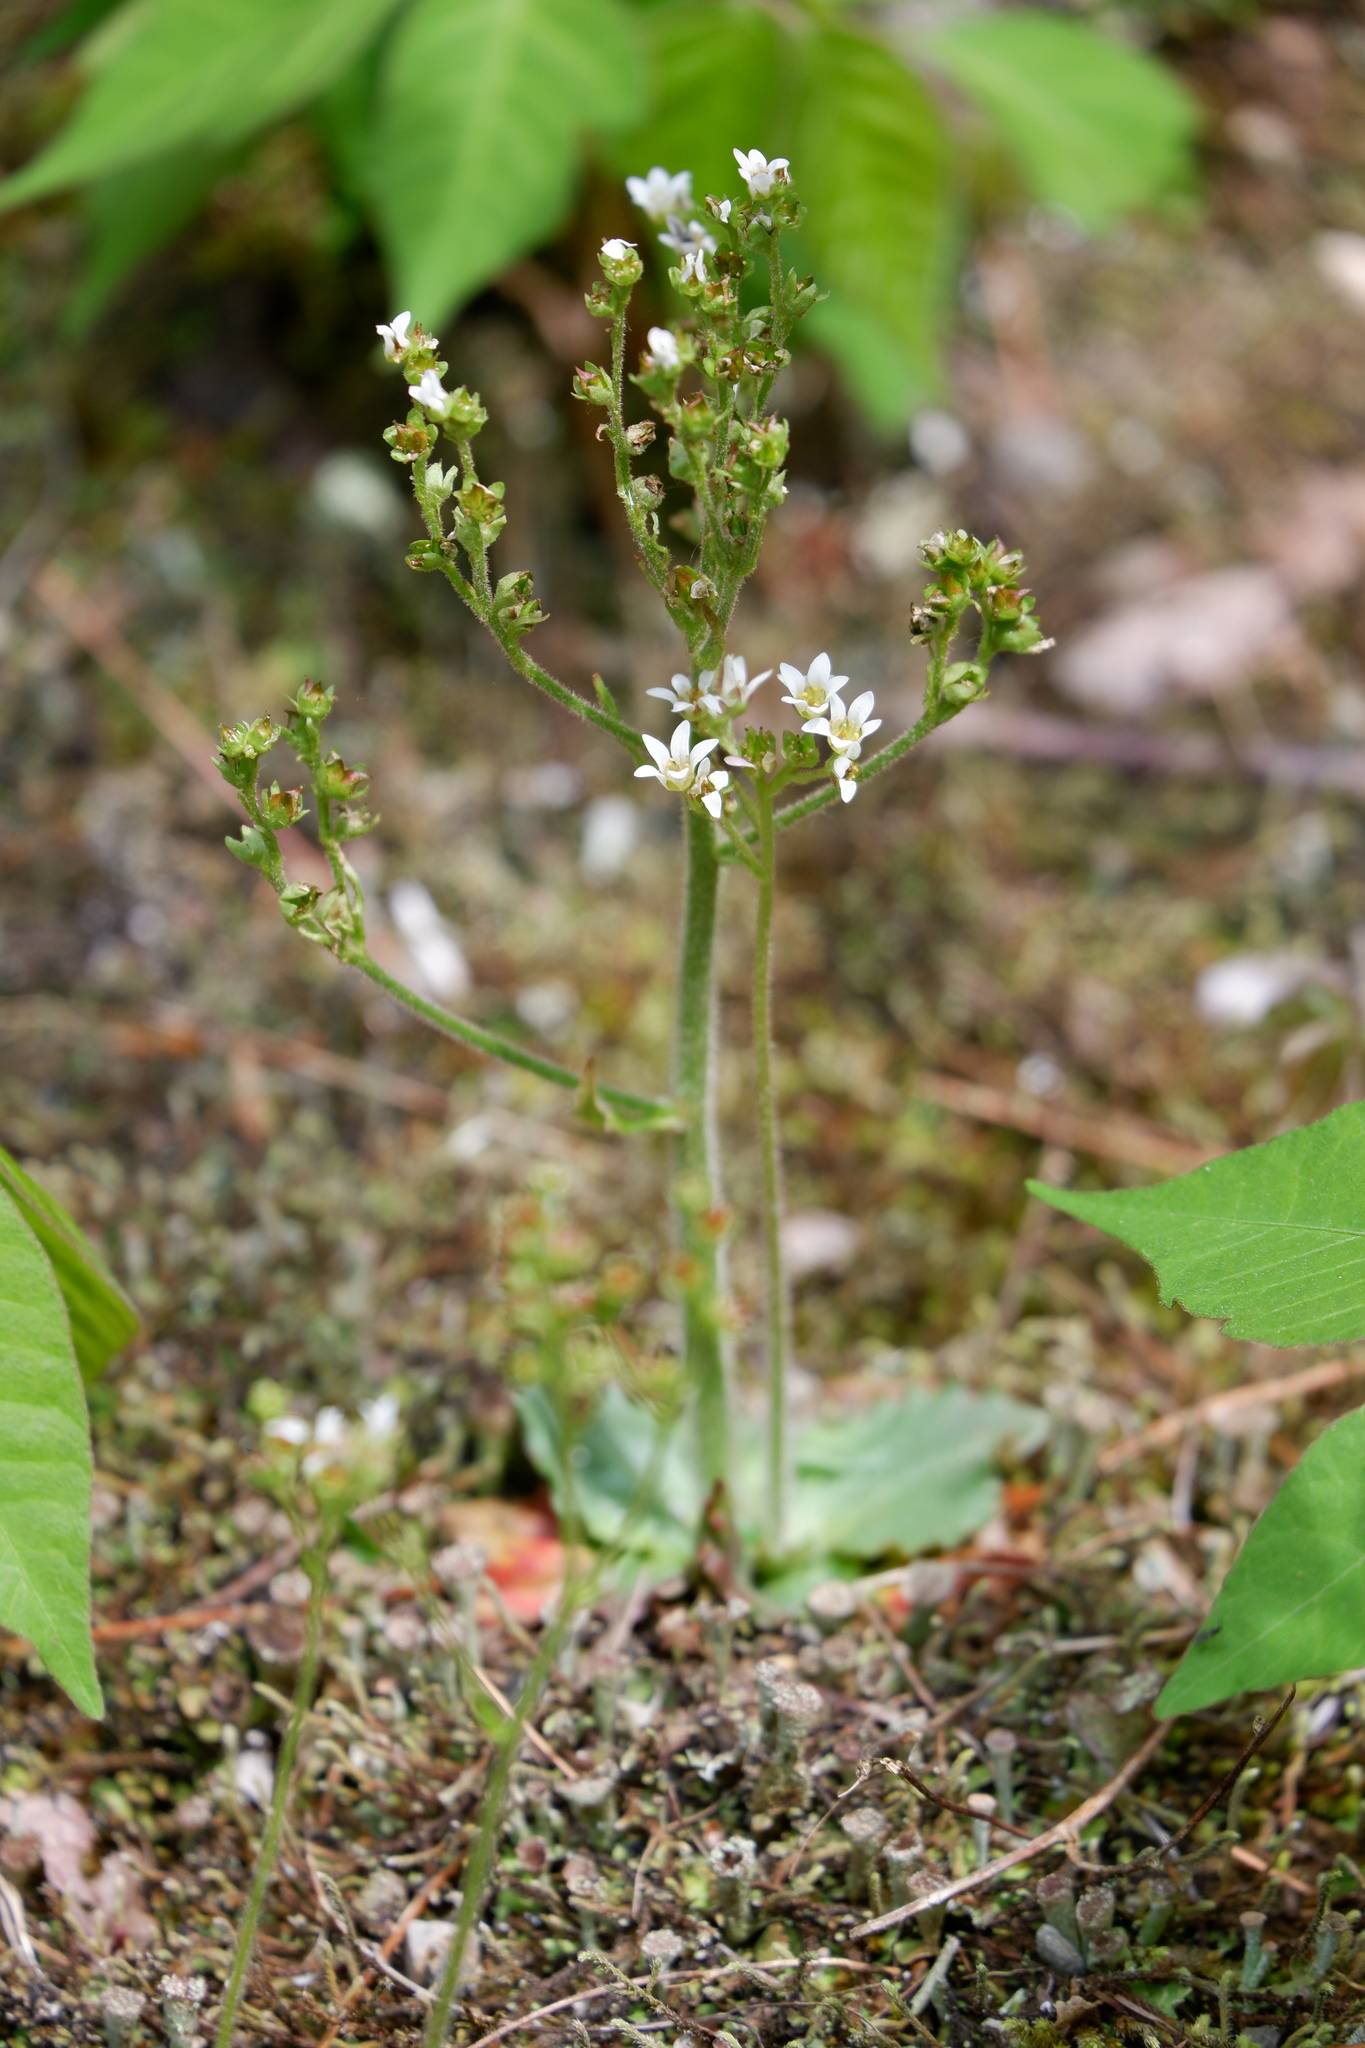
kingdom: Plantae
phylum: Tracheophyta
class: Magnoliopsida
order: Saxifragales
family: Saxifragaceae
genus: Micranthes
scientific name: Micranthes virginiensis
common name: Early saxifrage
